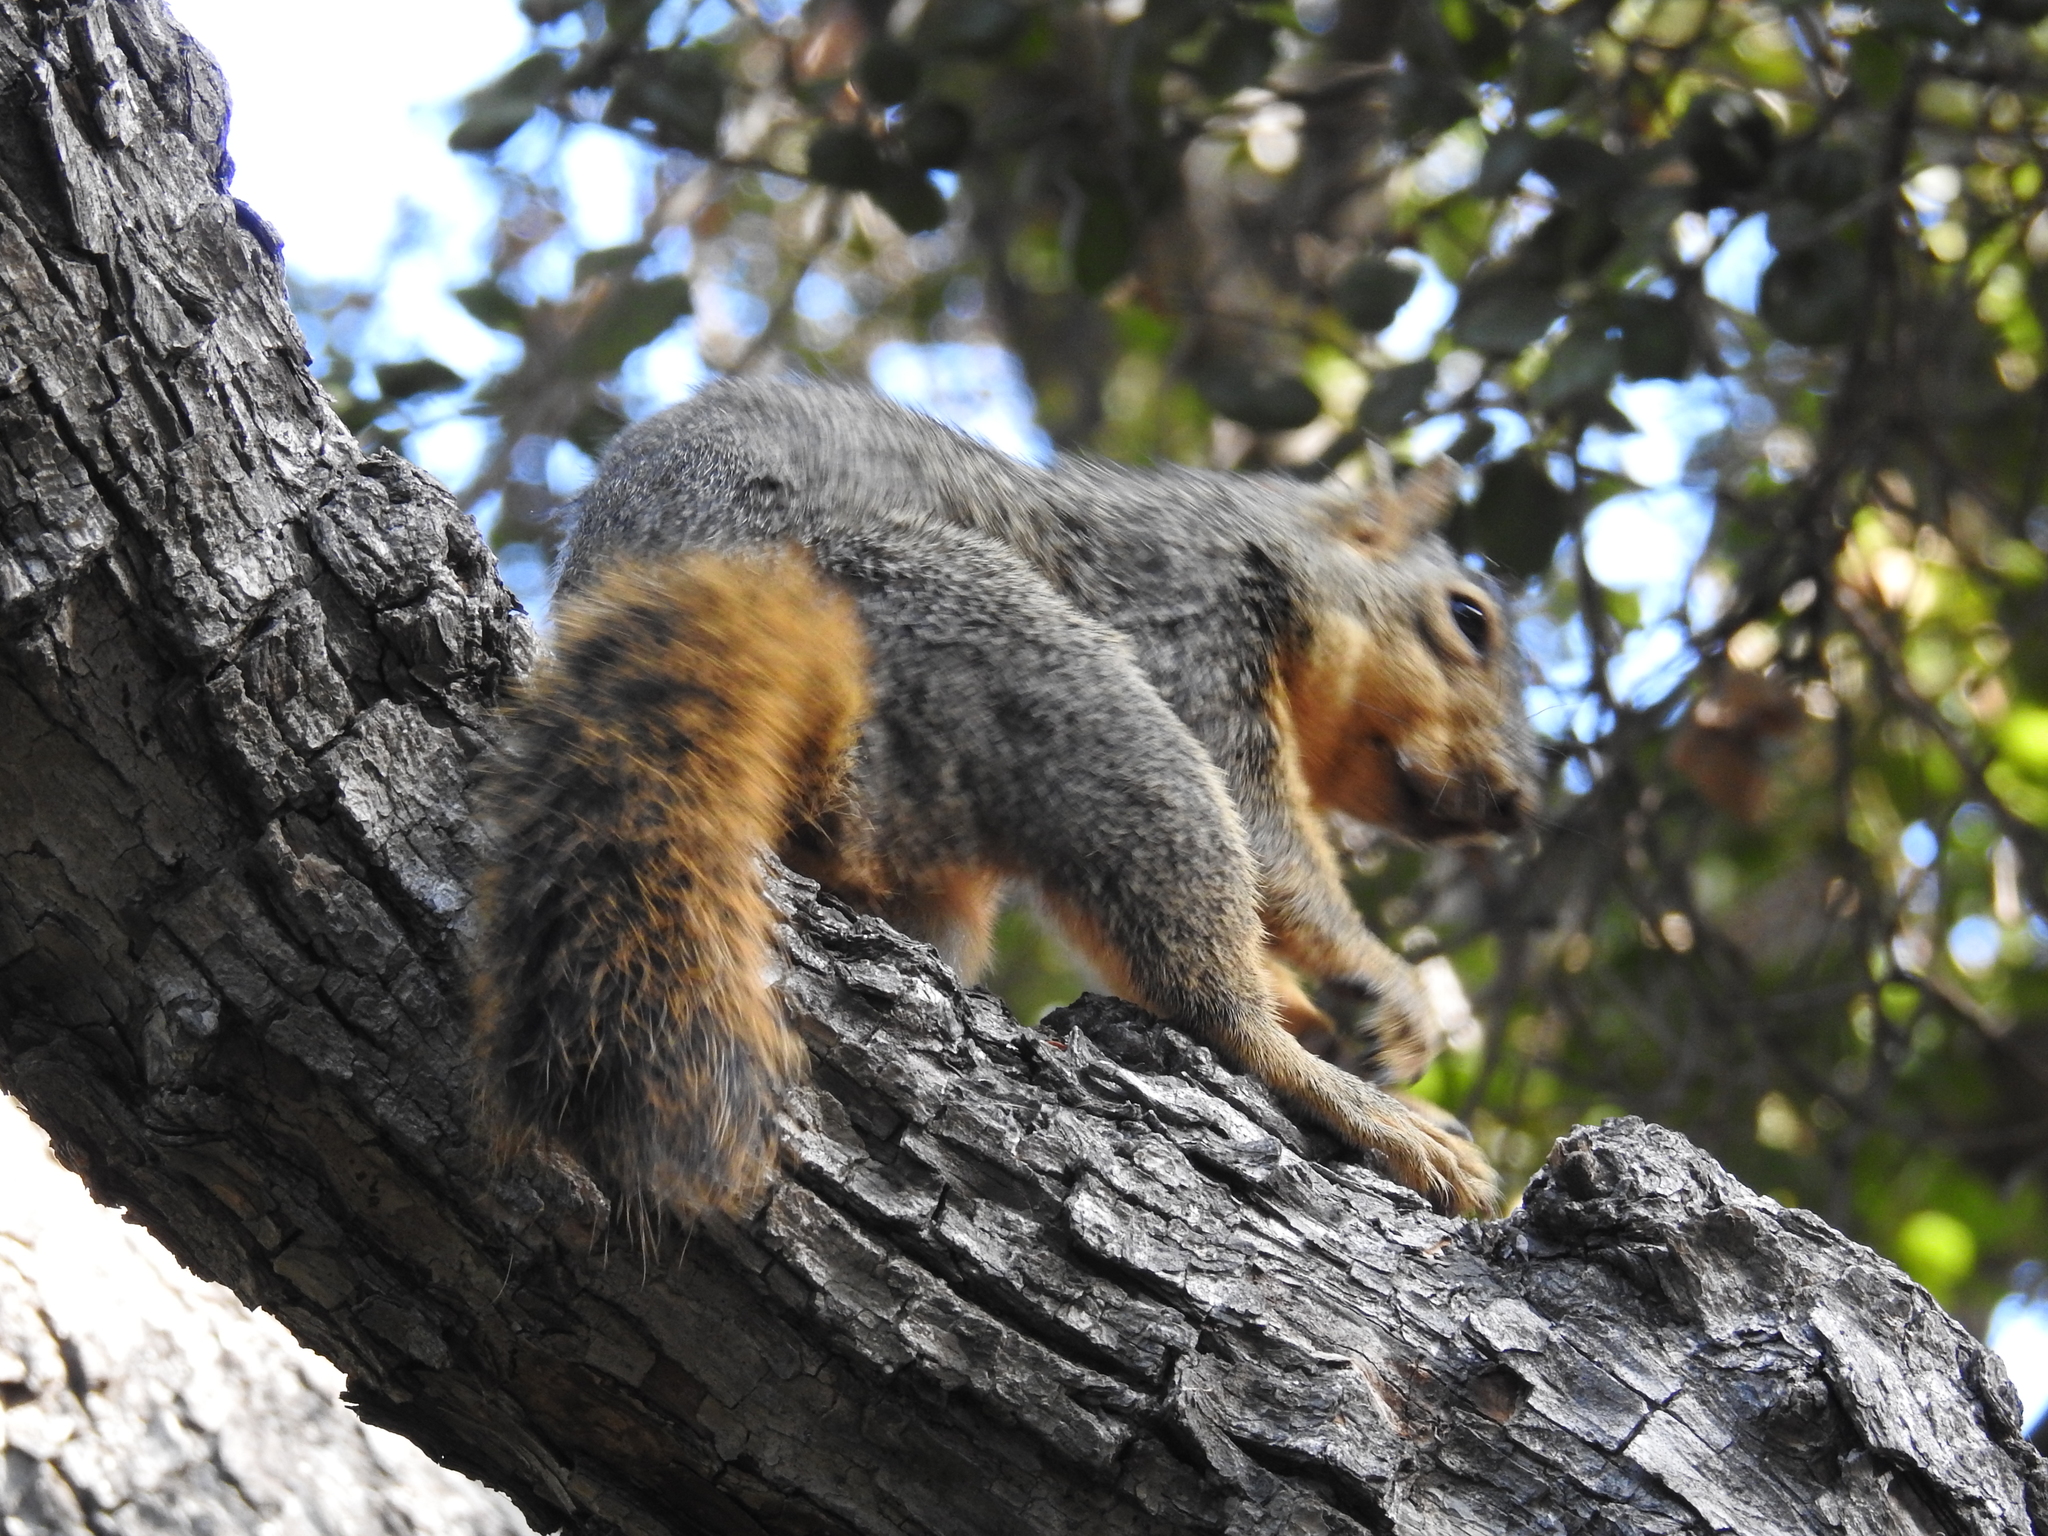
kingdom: Animalia
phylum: Chordata
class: Mammalia
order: Rodentia
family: Sciuridae
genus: Sciurus
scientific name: Sciurus niger
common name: Fox squirrel
